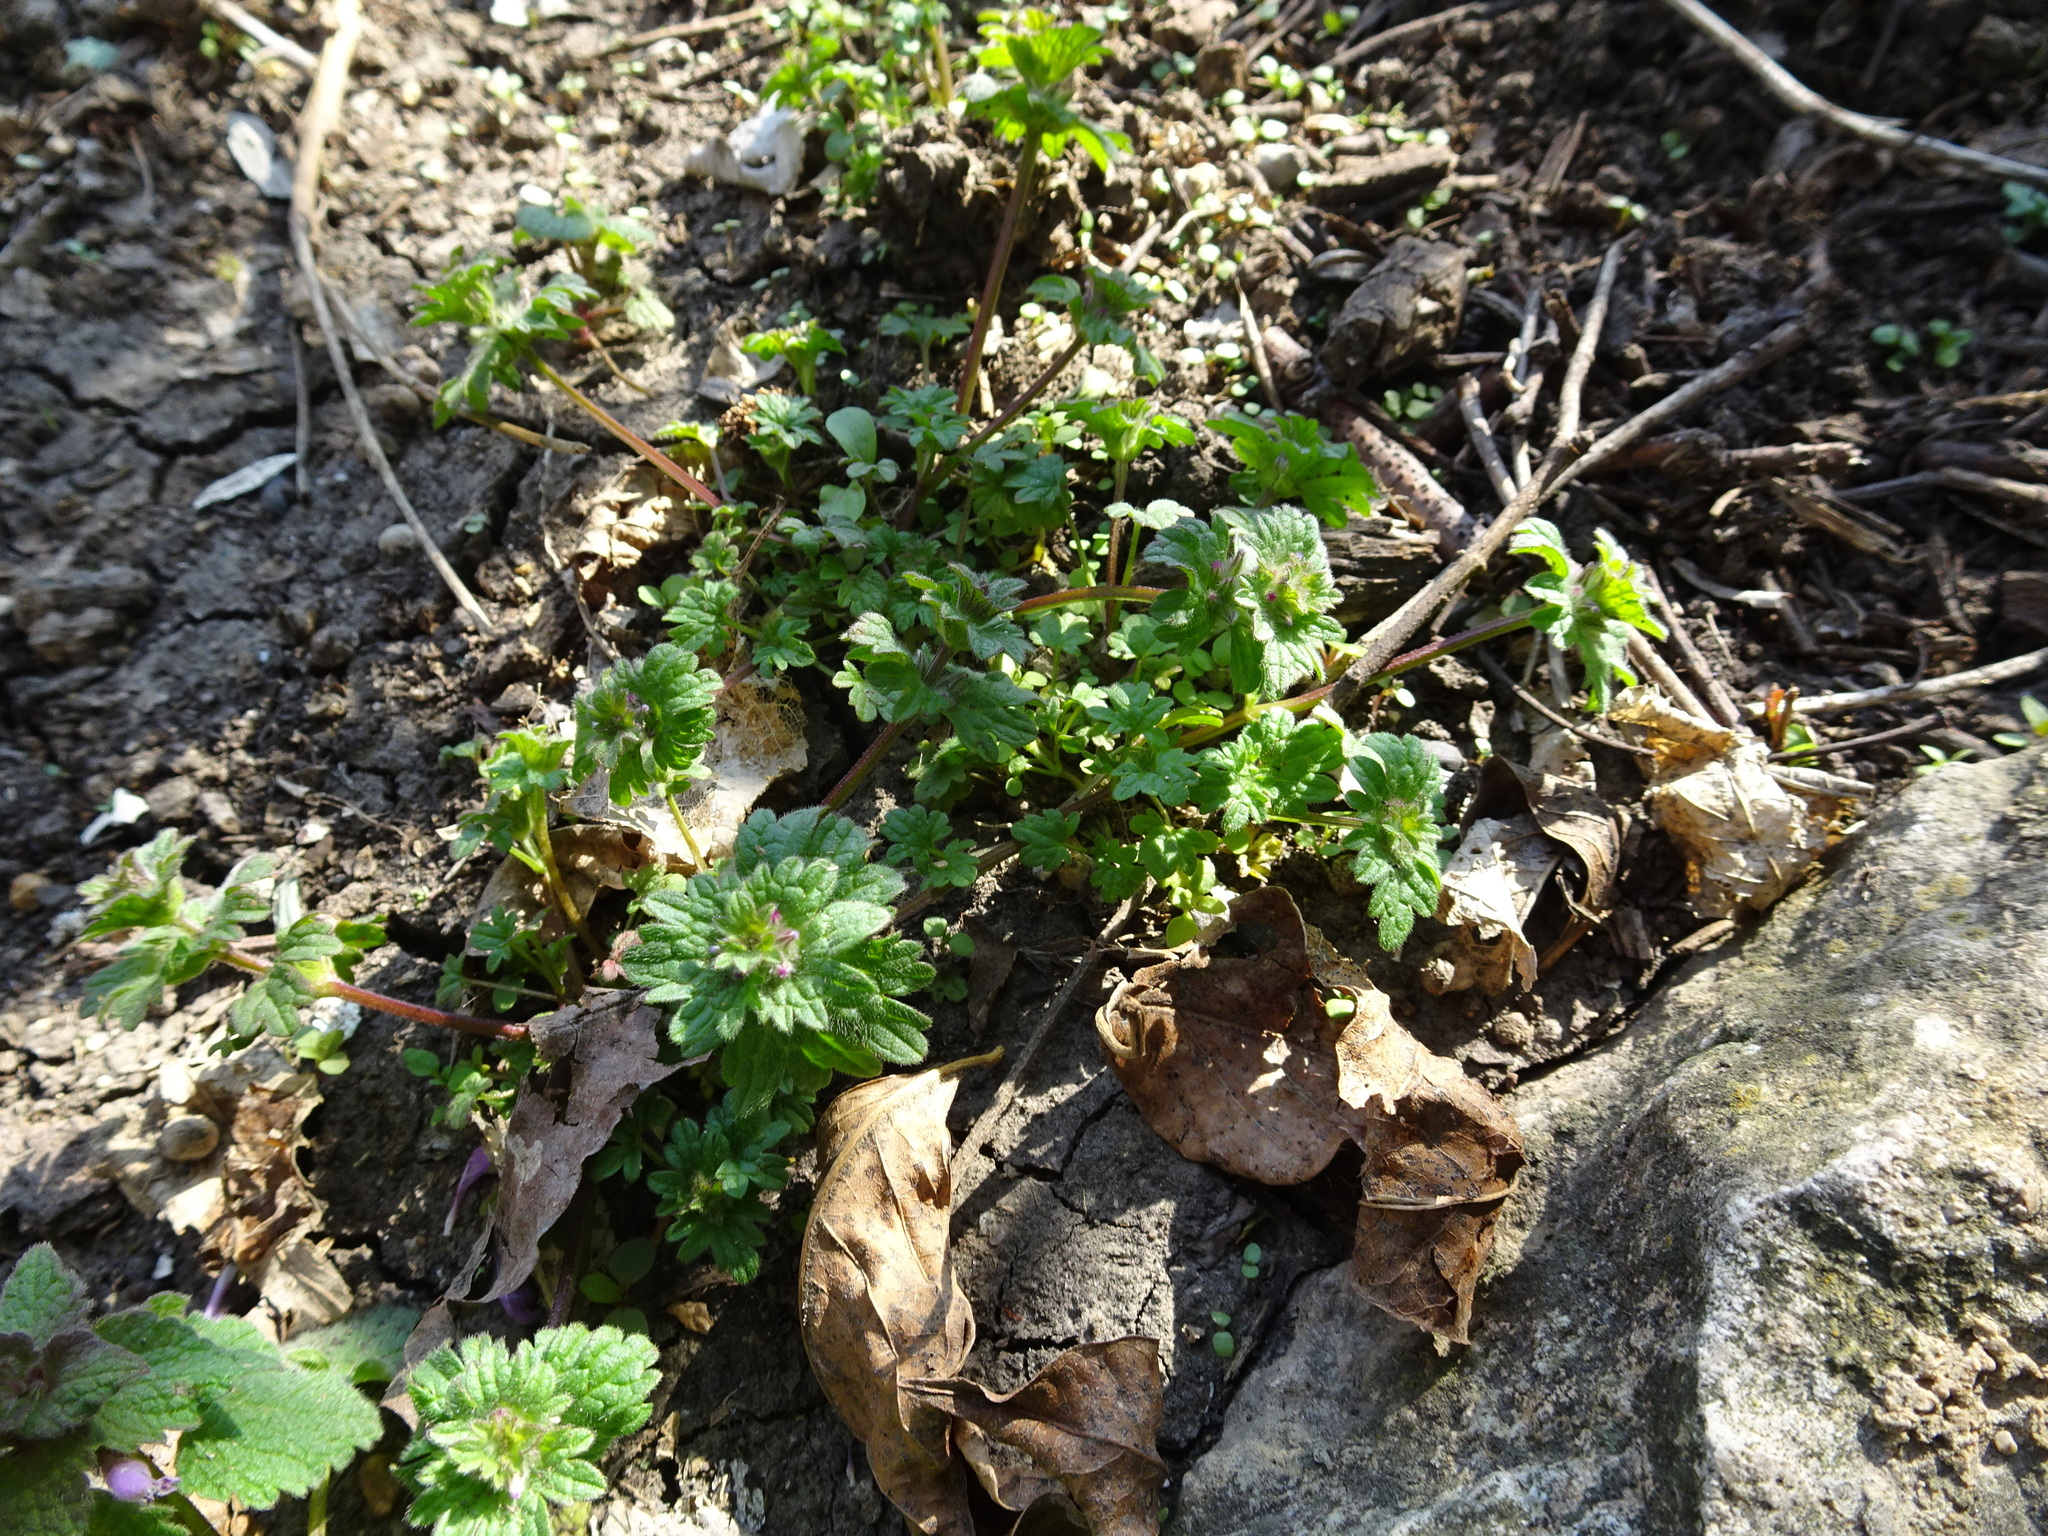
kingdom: Plantae
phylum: Tracheophyta
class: Magnoliopsida
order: Lamiales
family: Lamiaceae
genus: Lamium
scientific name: Lamium amplexicaule
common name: Henbit dead-nettle
